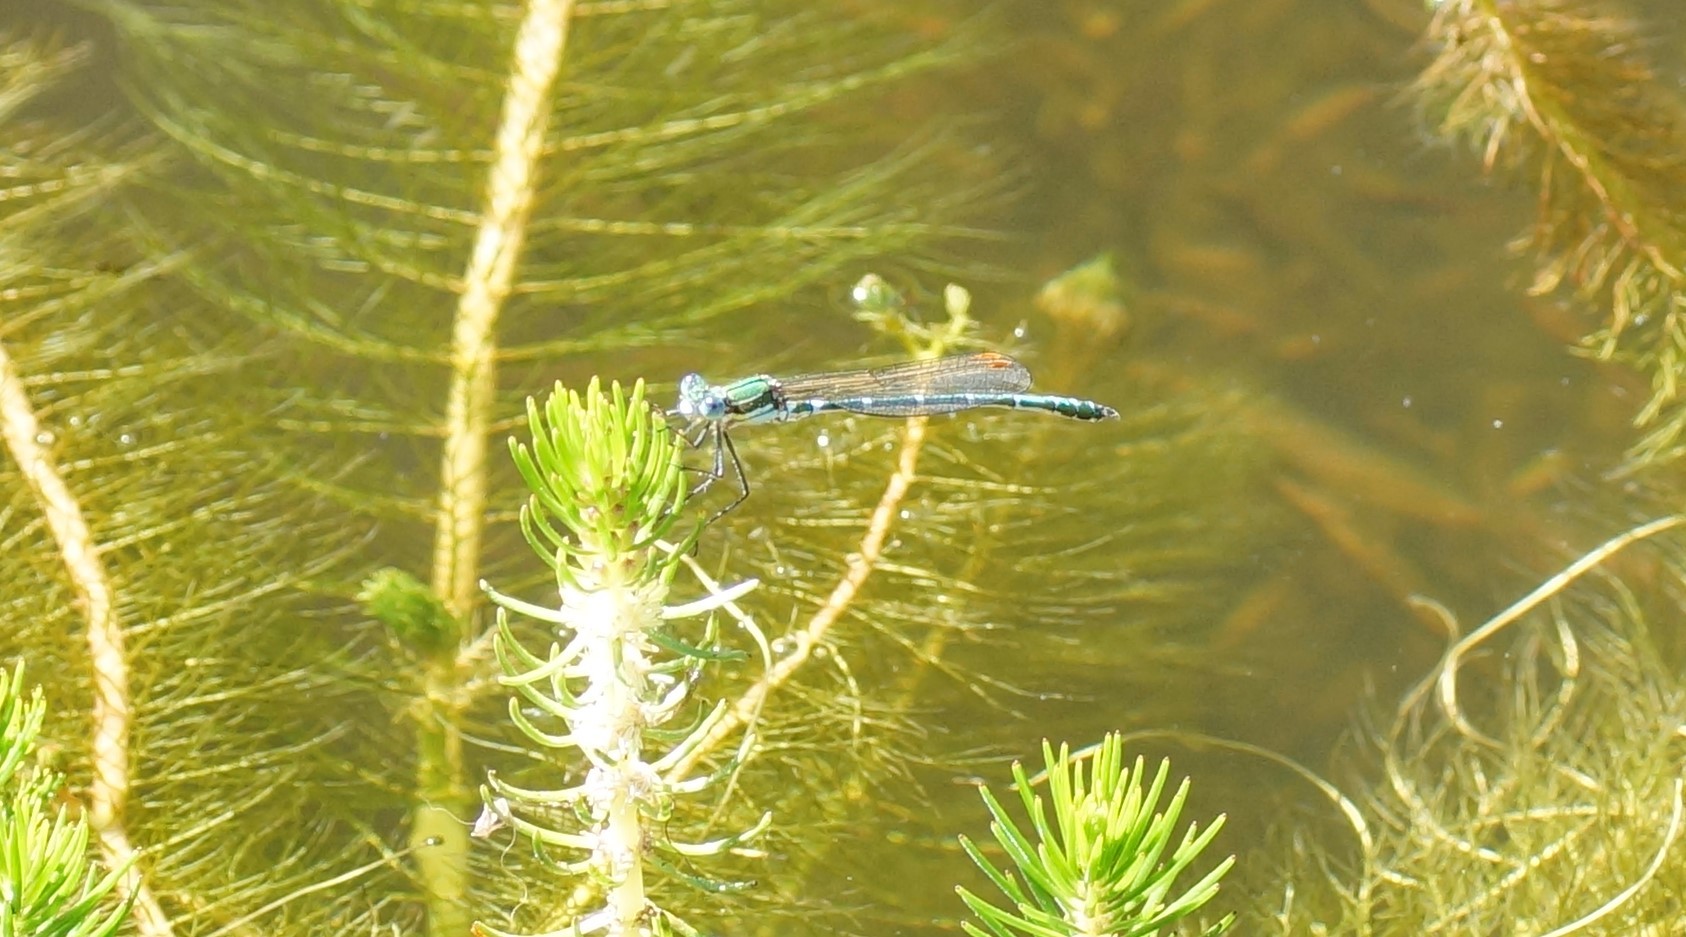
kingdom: Animalia
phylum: Arthropoda
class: Insecta
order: Odonata
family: Lestidae
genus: Austrolestes
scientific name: Austrolestes cingulatus
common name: Metallic ringtail
